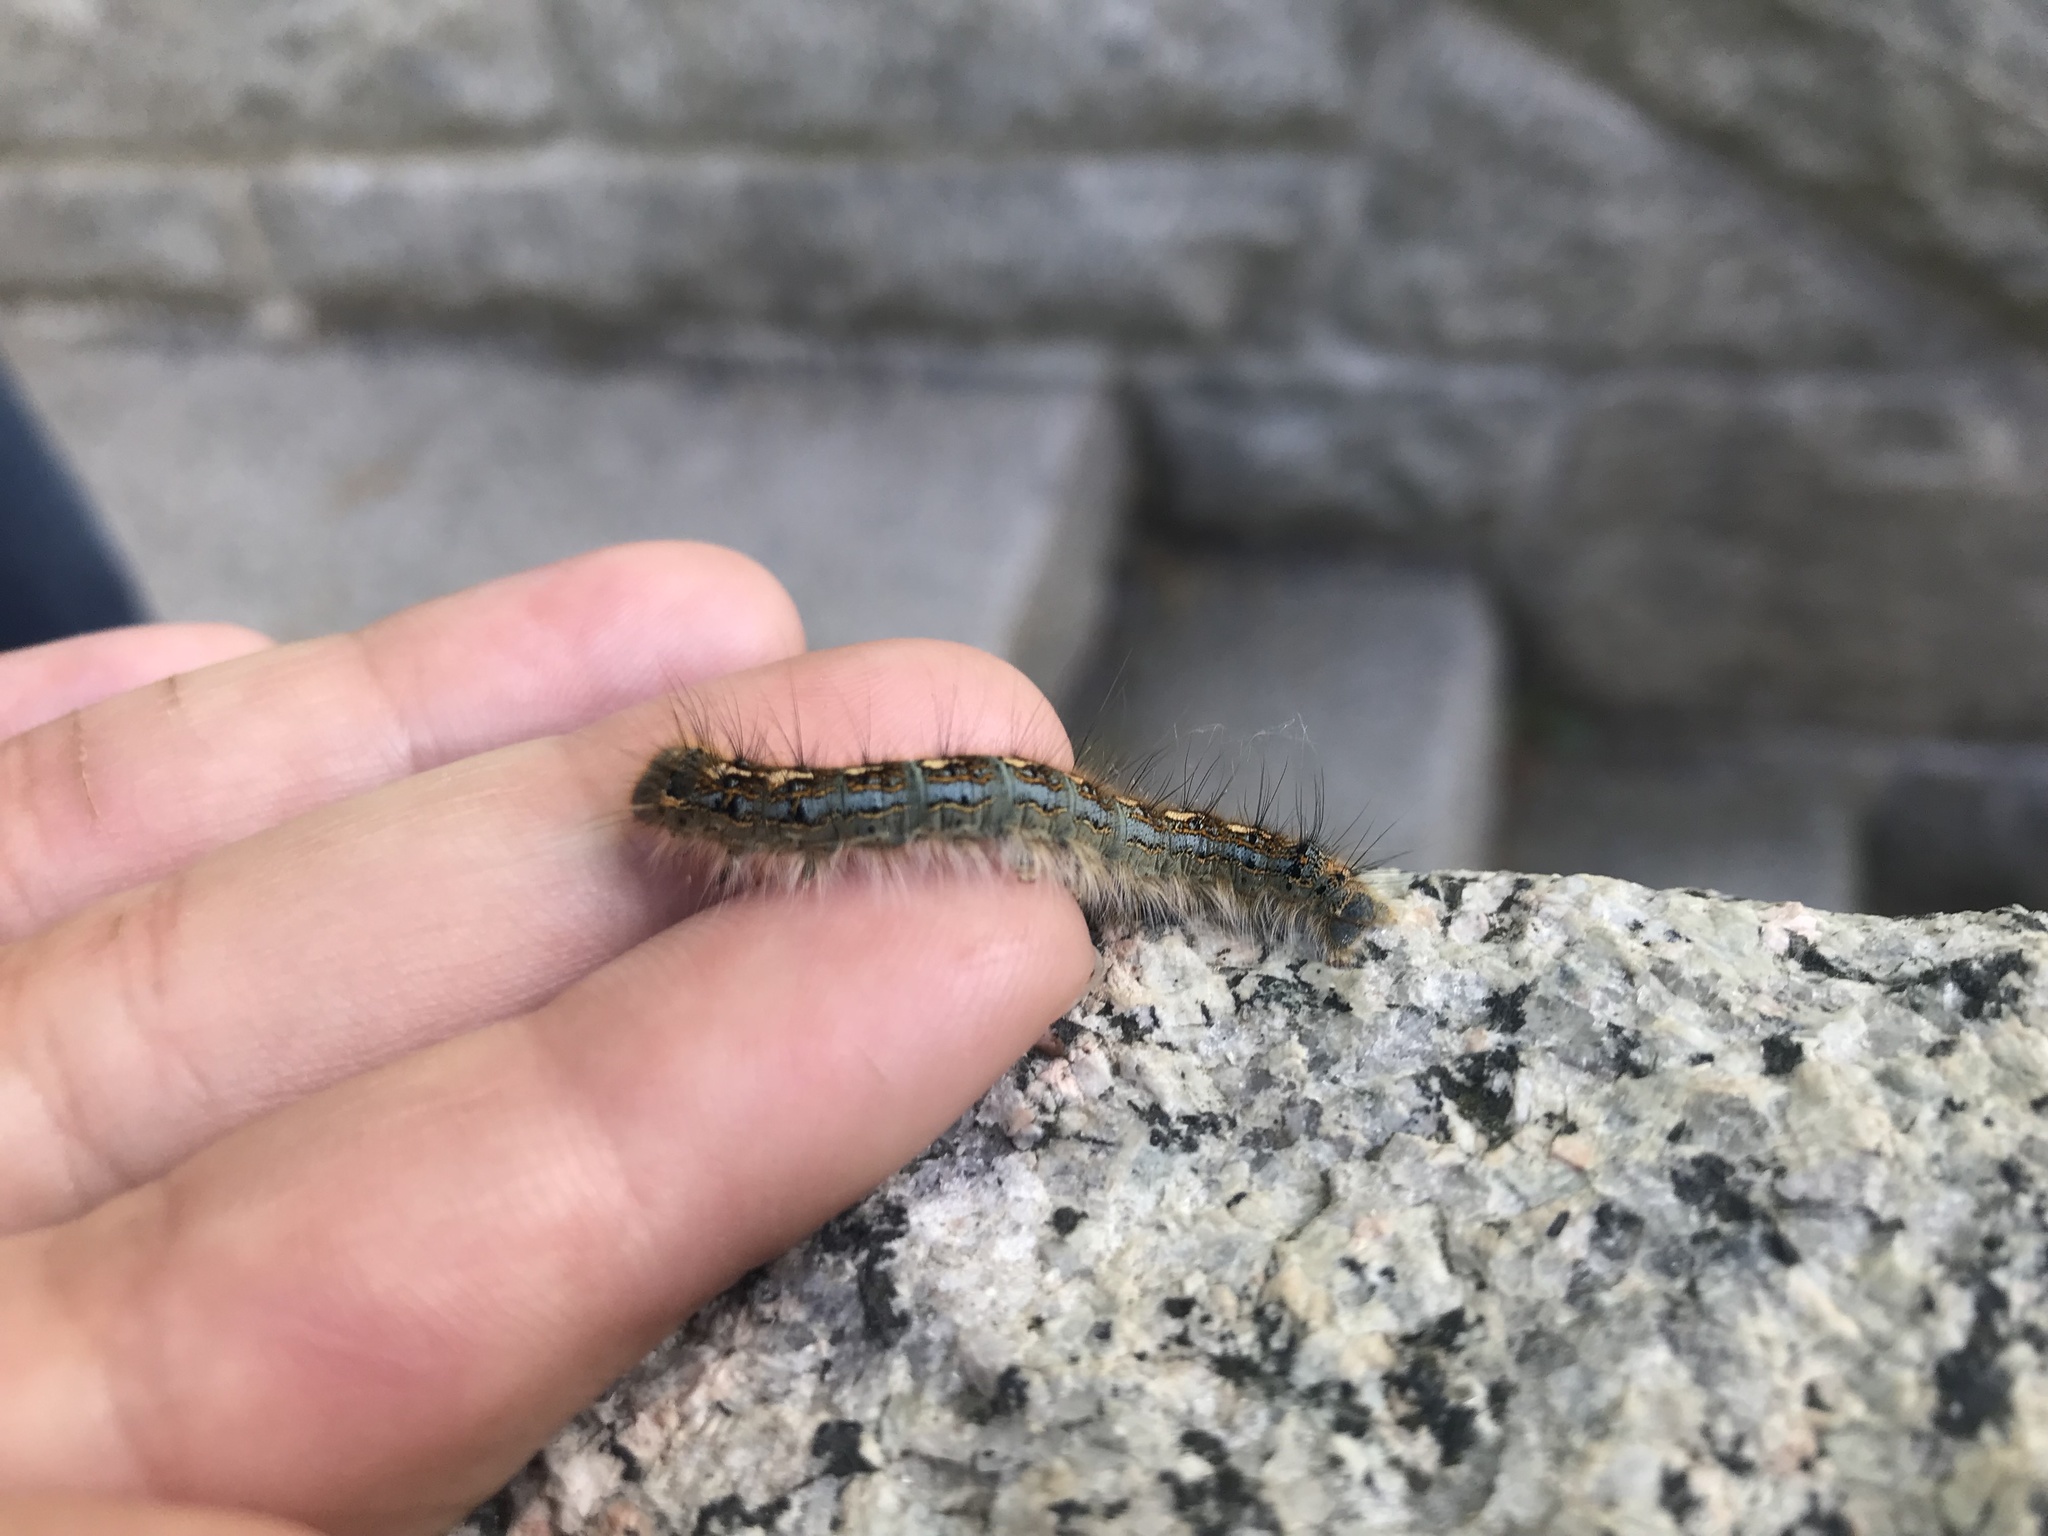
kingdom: Animalia
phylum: Arthropoda
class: Insecta
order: Lepidoptera
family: Lasiocampidae
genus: Malacosoma
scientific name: Malacosoma disstria
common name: Forest tent caterpillar
